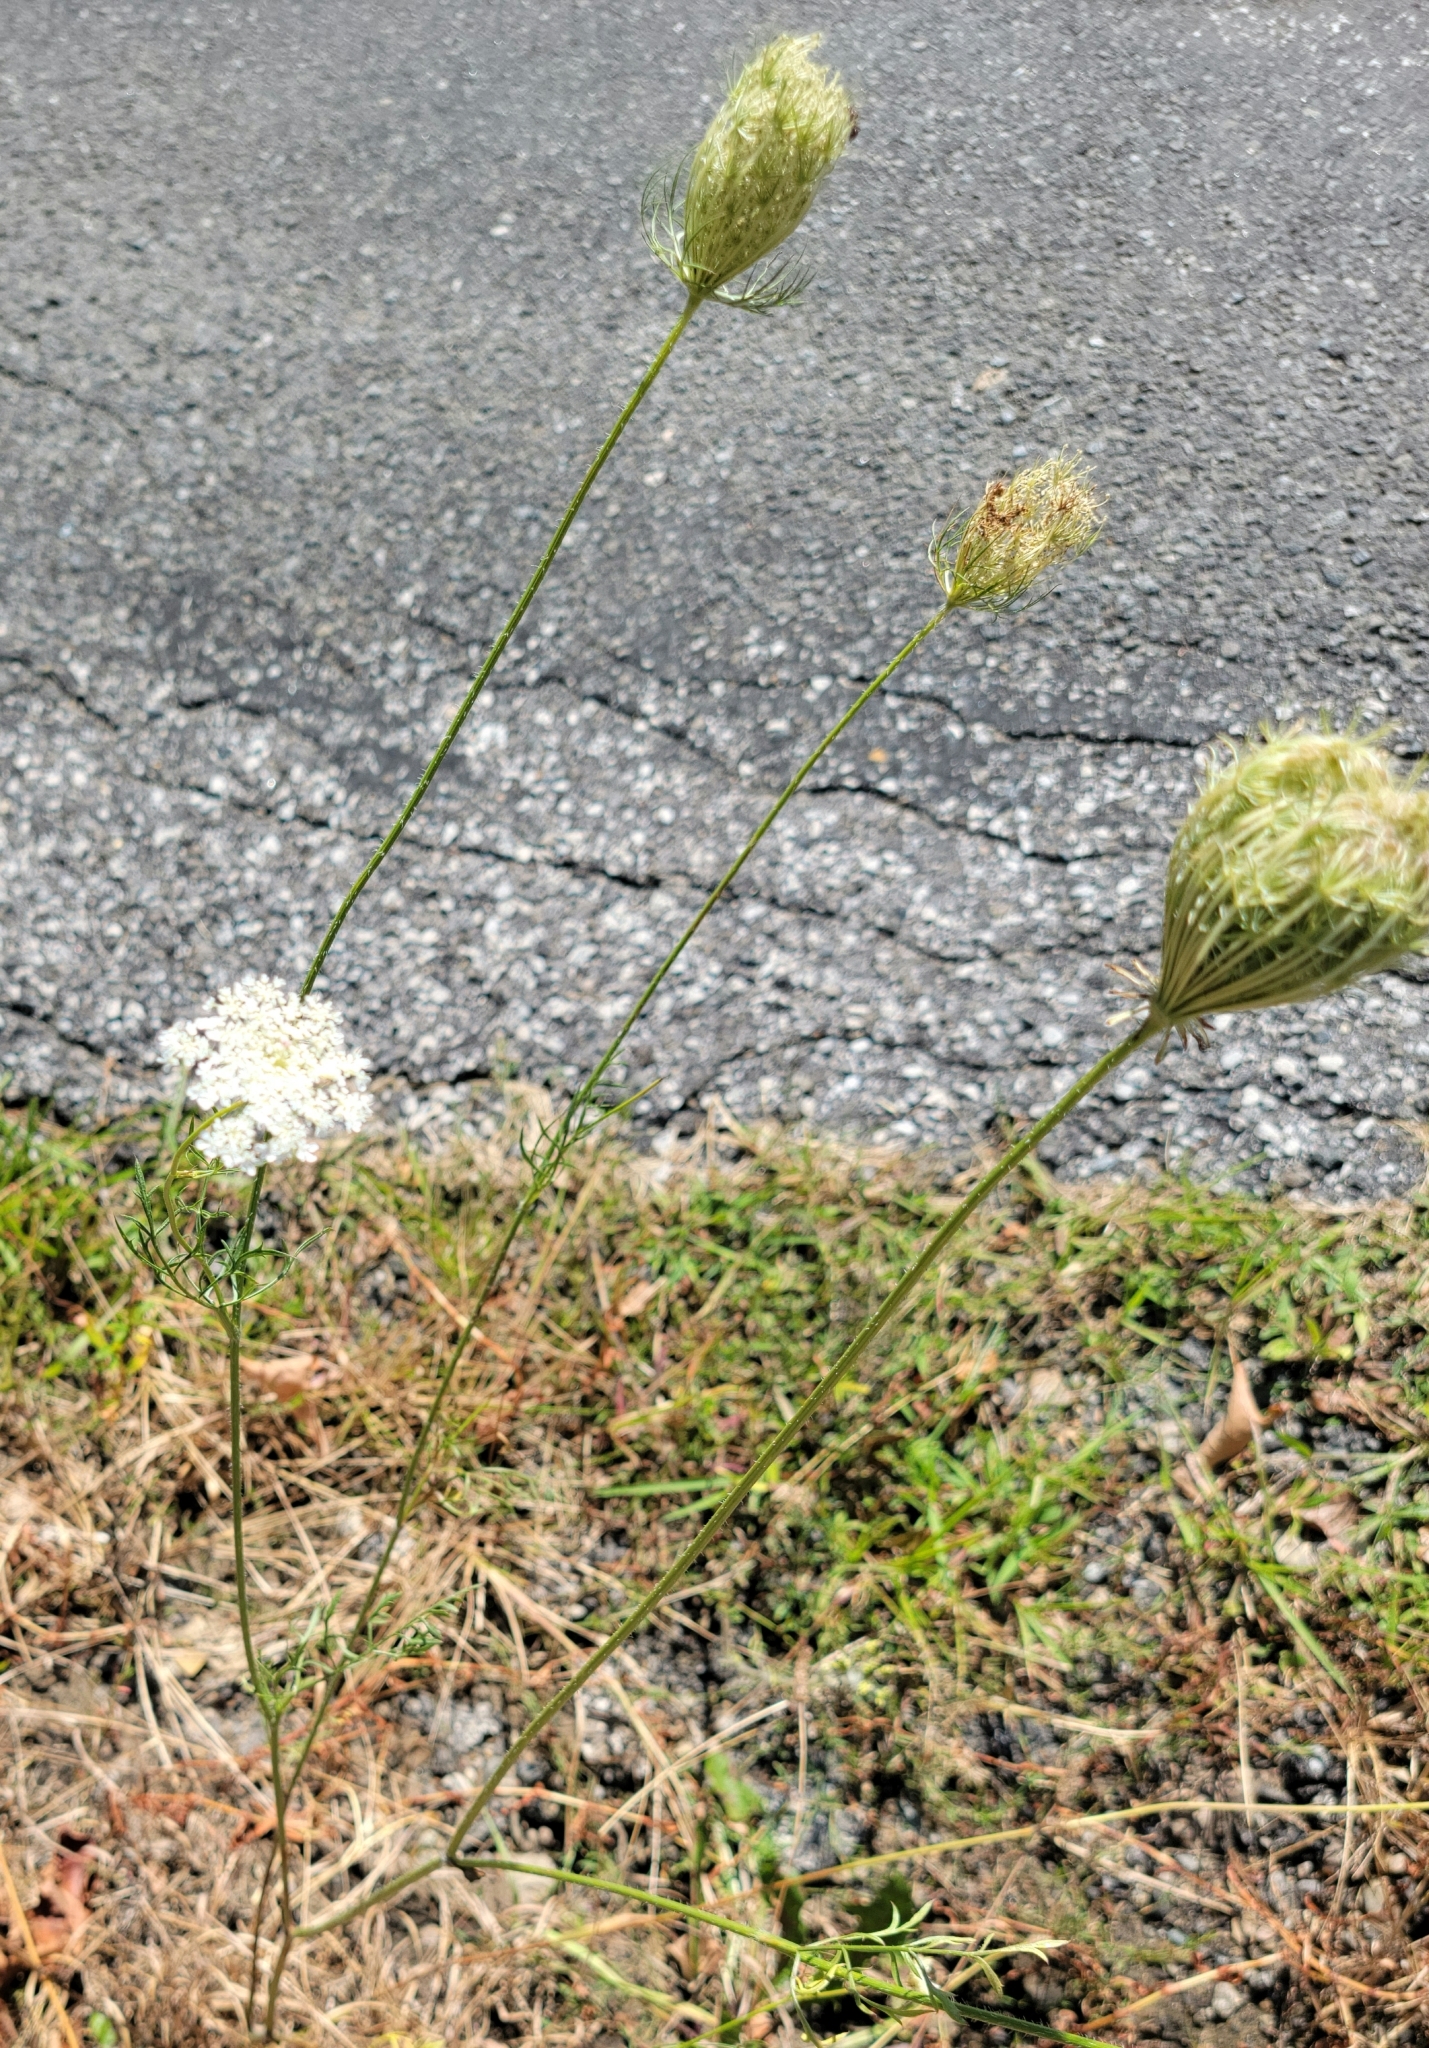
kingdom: Plantae
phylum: Tracheophyta
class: Magnoliopsida
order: Apiales
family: Apiaceae
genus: Daucus
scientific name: Daucus carota
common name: Wild carrot
